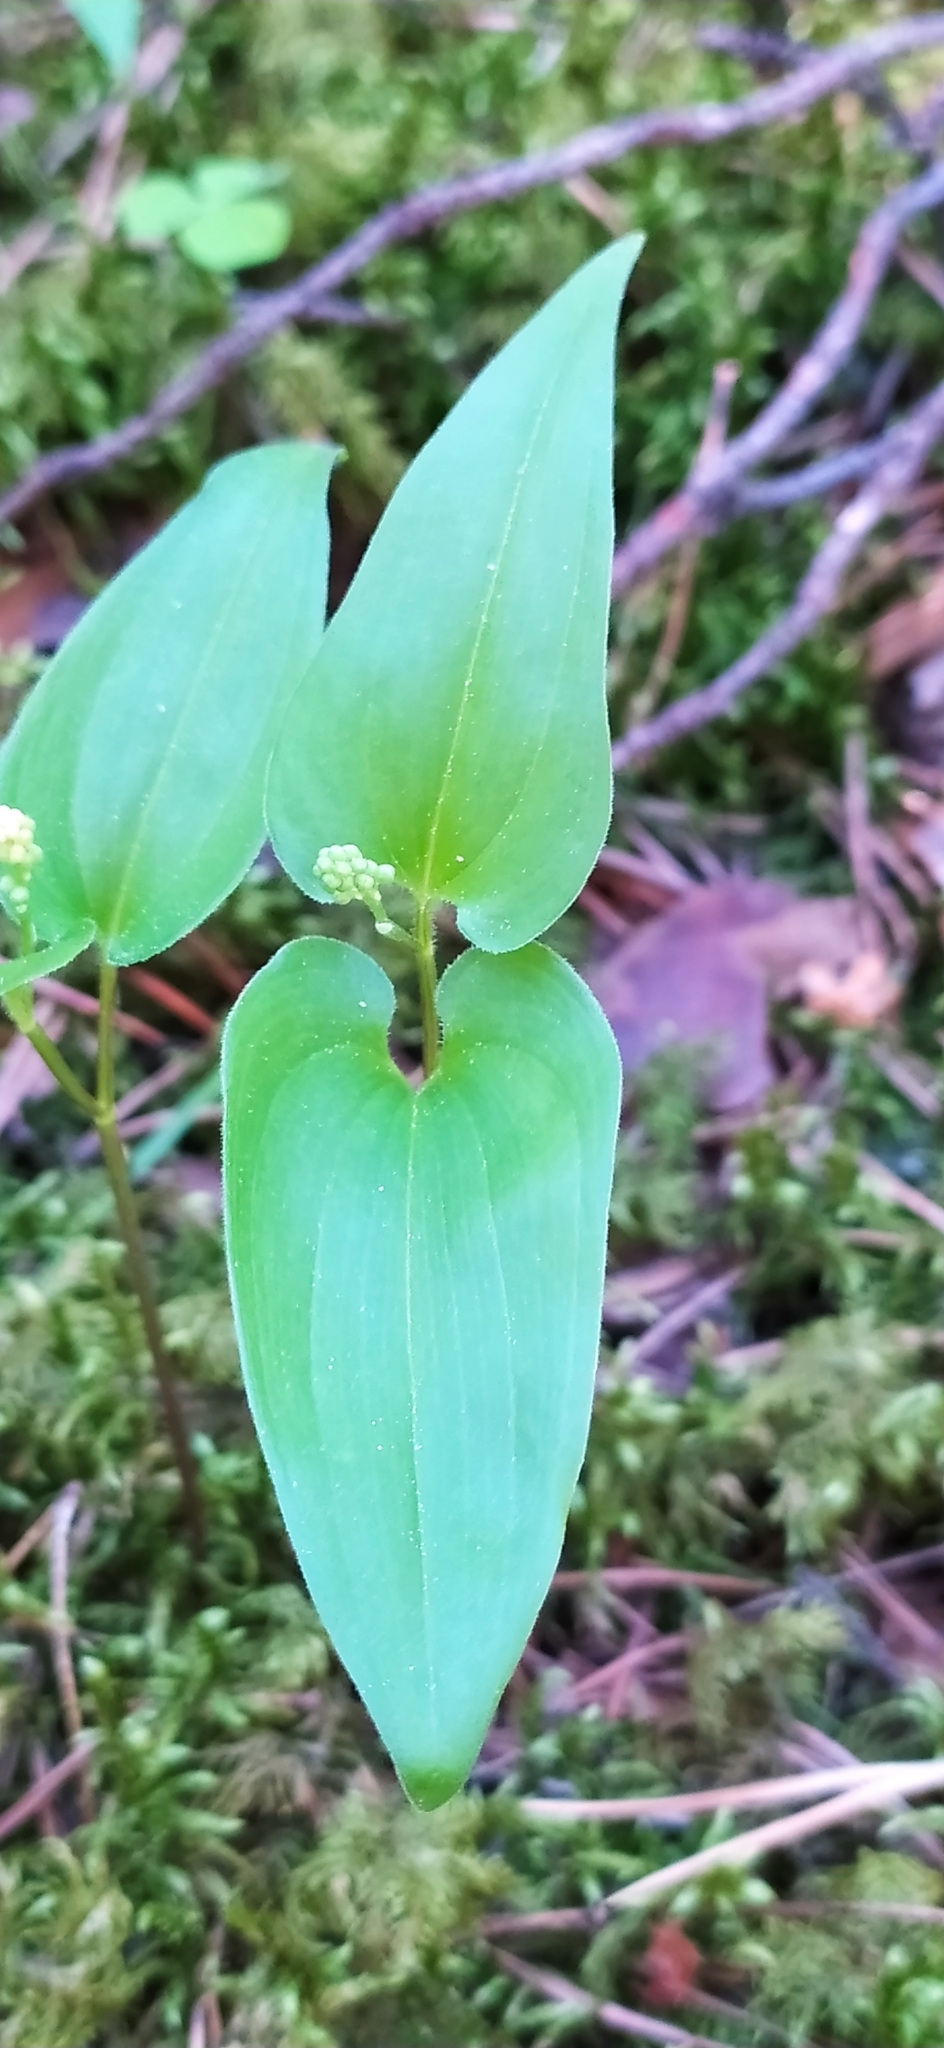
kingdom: Plantae
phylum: Tracheophyta
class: Liliopsida
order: Asparagales
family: Asparagaceae
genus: Maianthemum
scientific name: Maianthemum bifolium
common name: May lily
